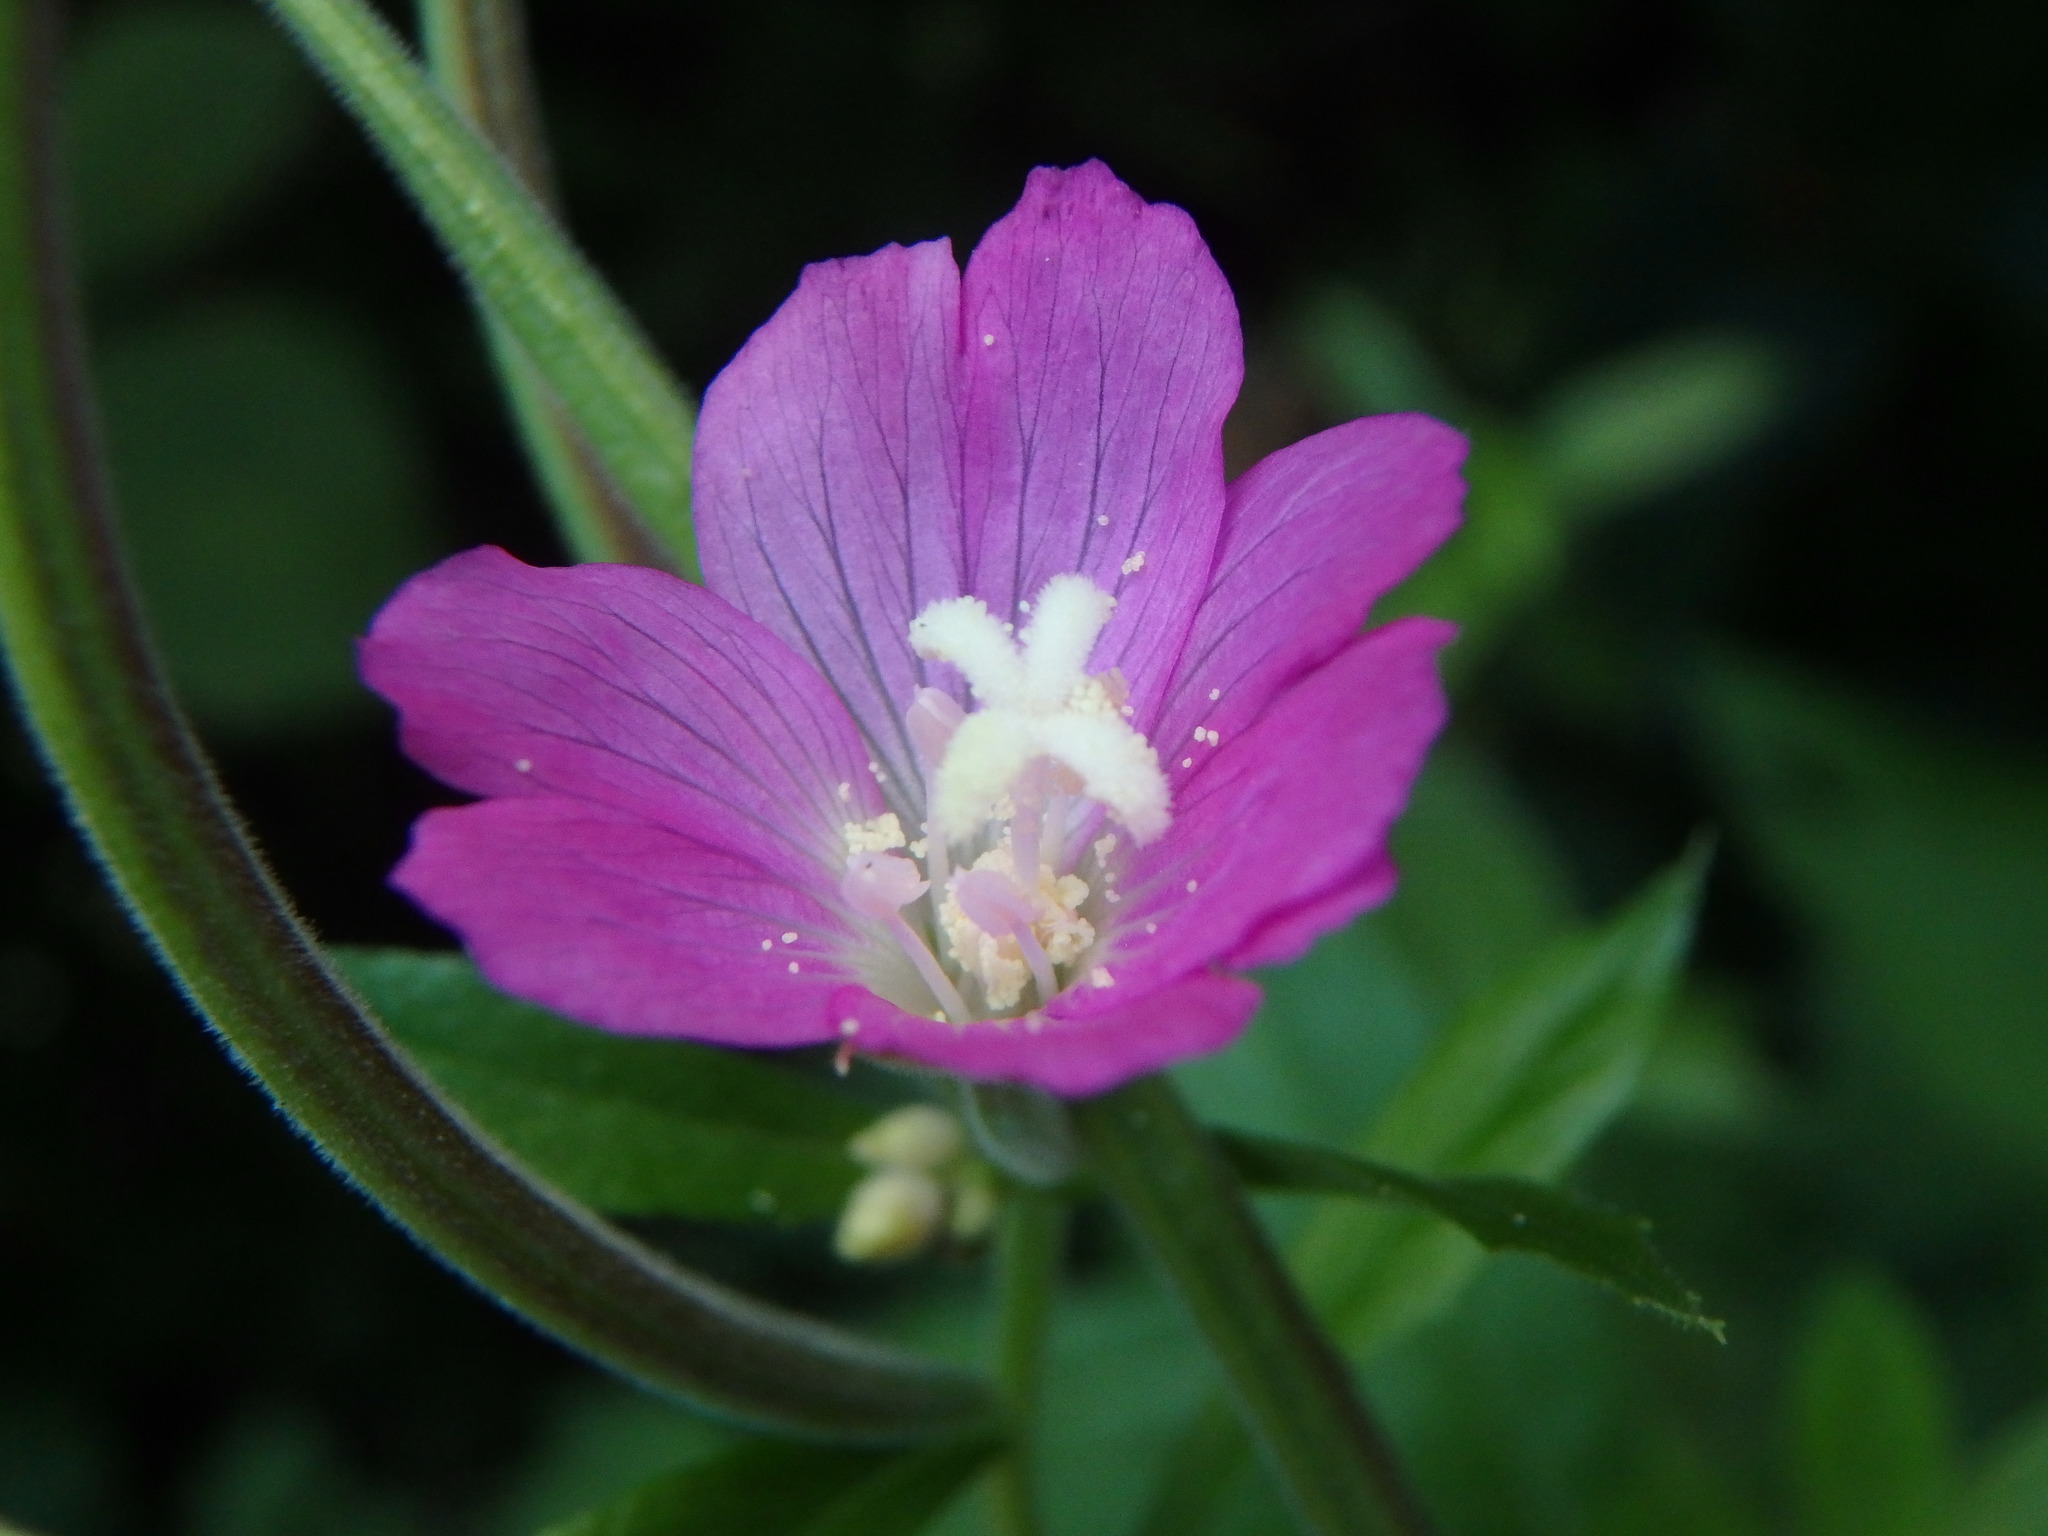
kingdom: Plantae
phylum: Tracheophyta
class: Magnoliopsida
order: Myrtales
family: Onagraceae
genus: Epilobium
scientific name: Epilobium hirsutum
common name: Great willowherb
